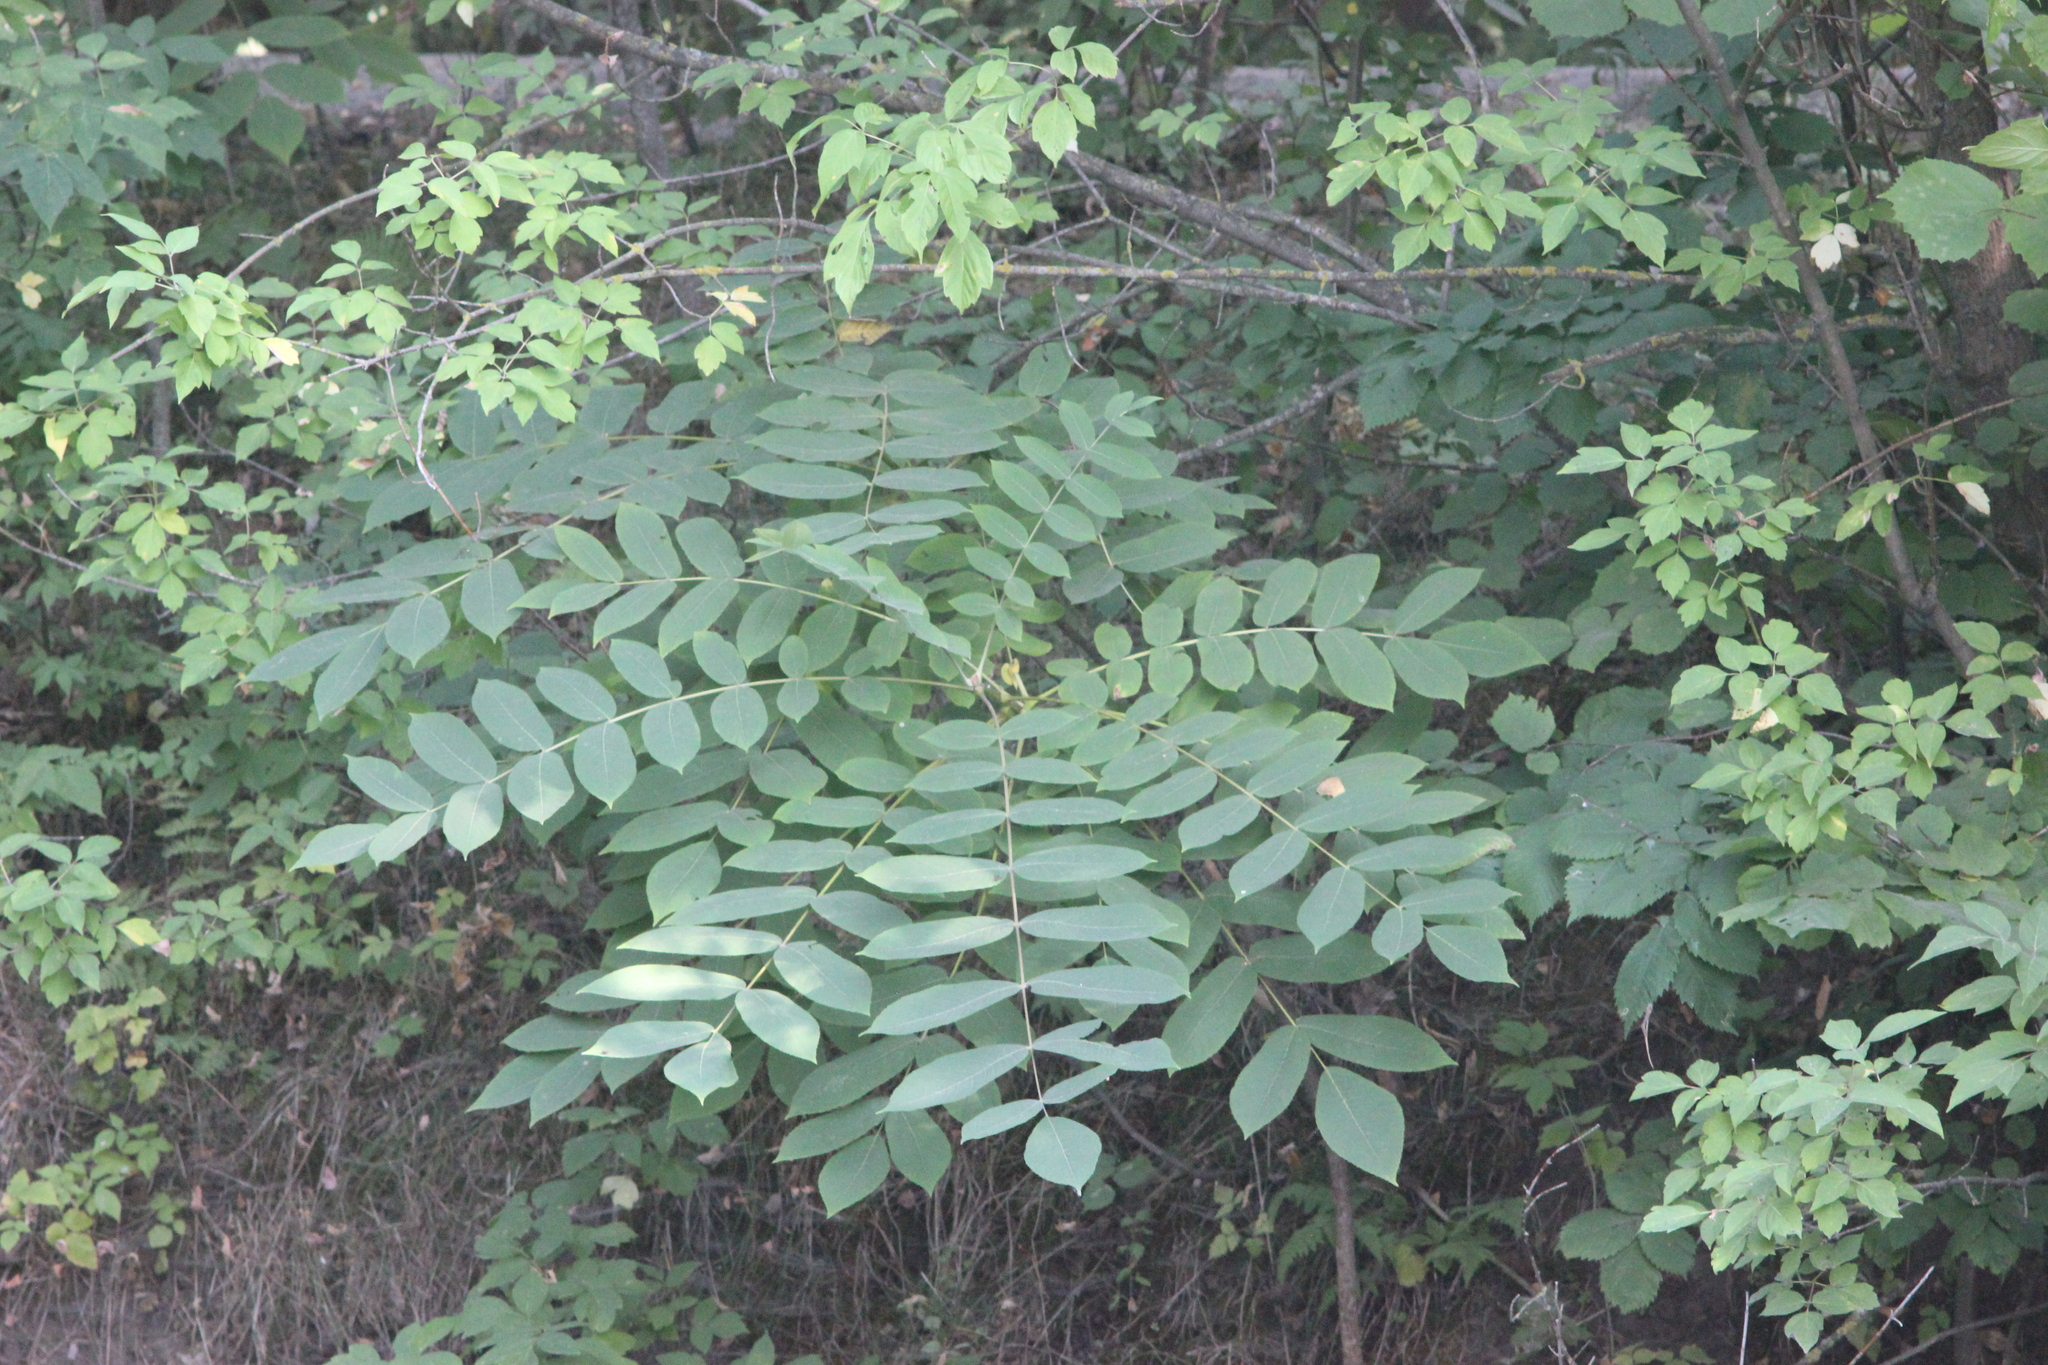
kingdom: Plantae
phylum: Tracheophyta
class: Magnoliopsida
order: Fagales
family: Juglandaceae
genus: Juglans
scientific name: Juglans mandshurica
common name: Manchurian walnut
